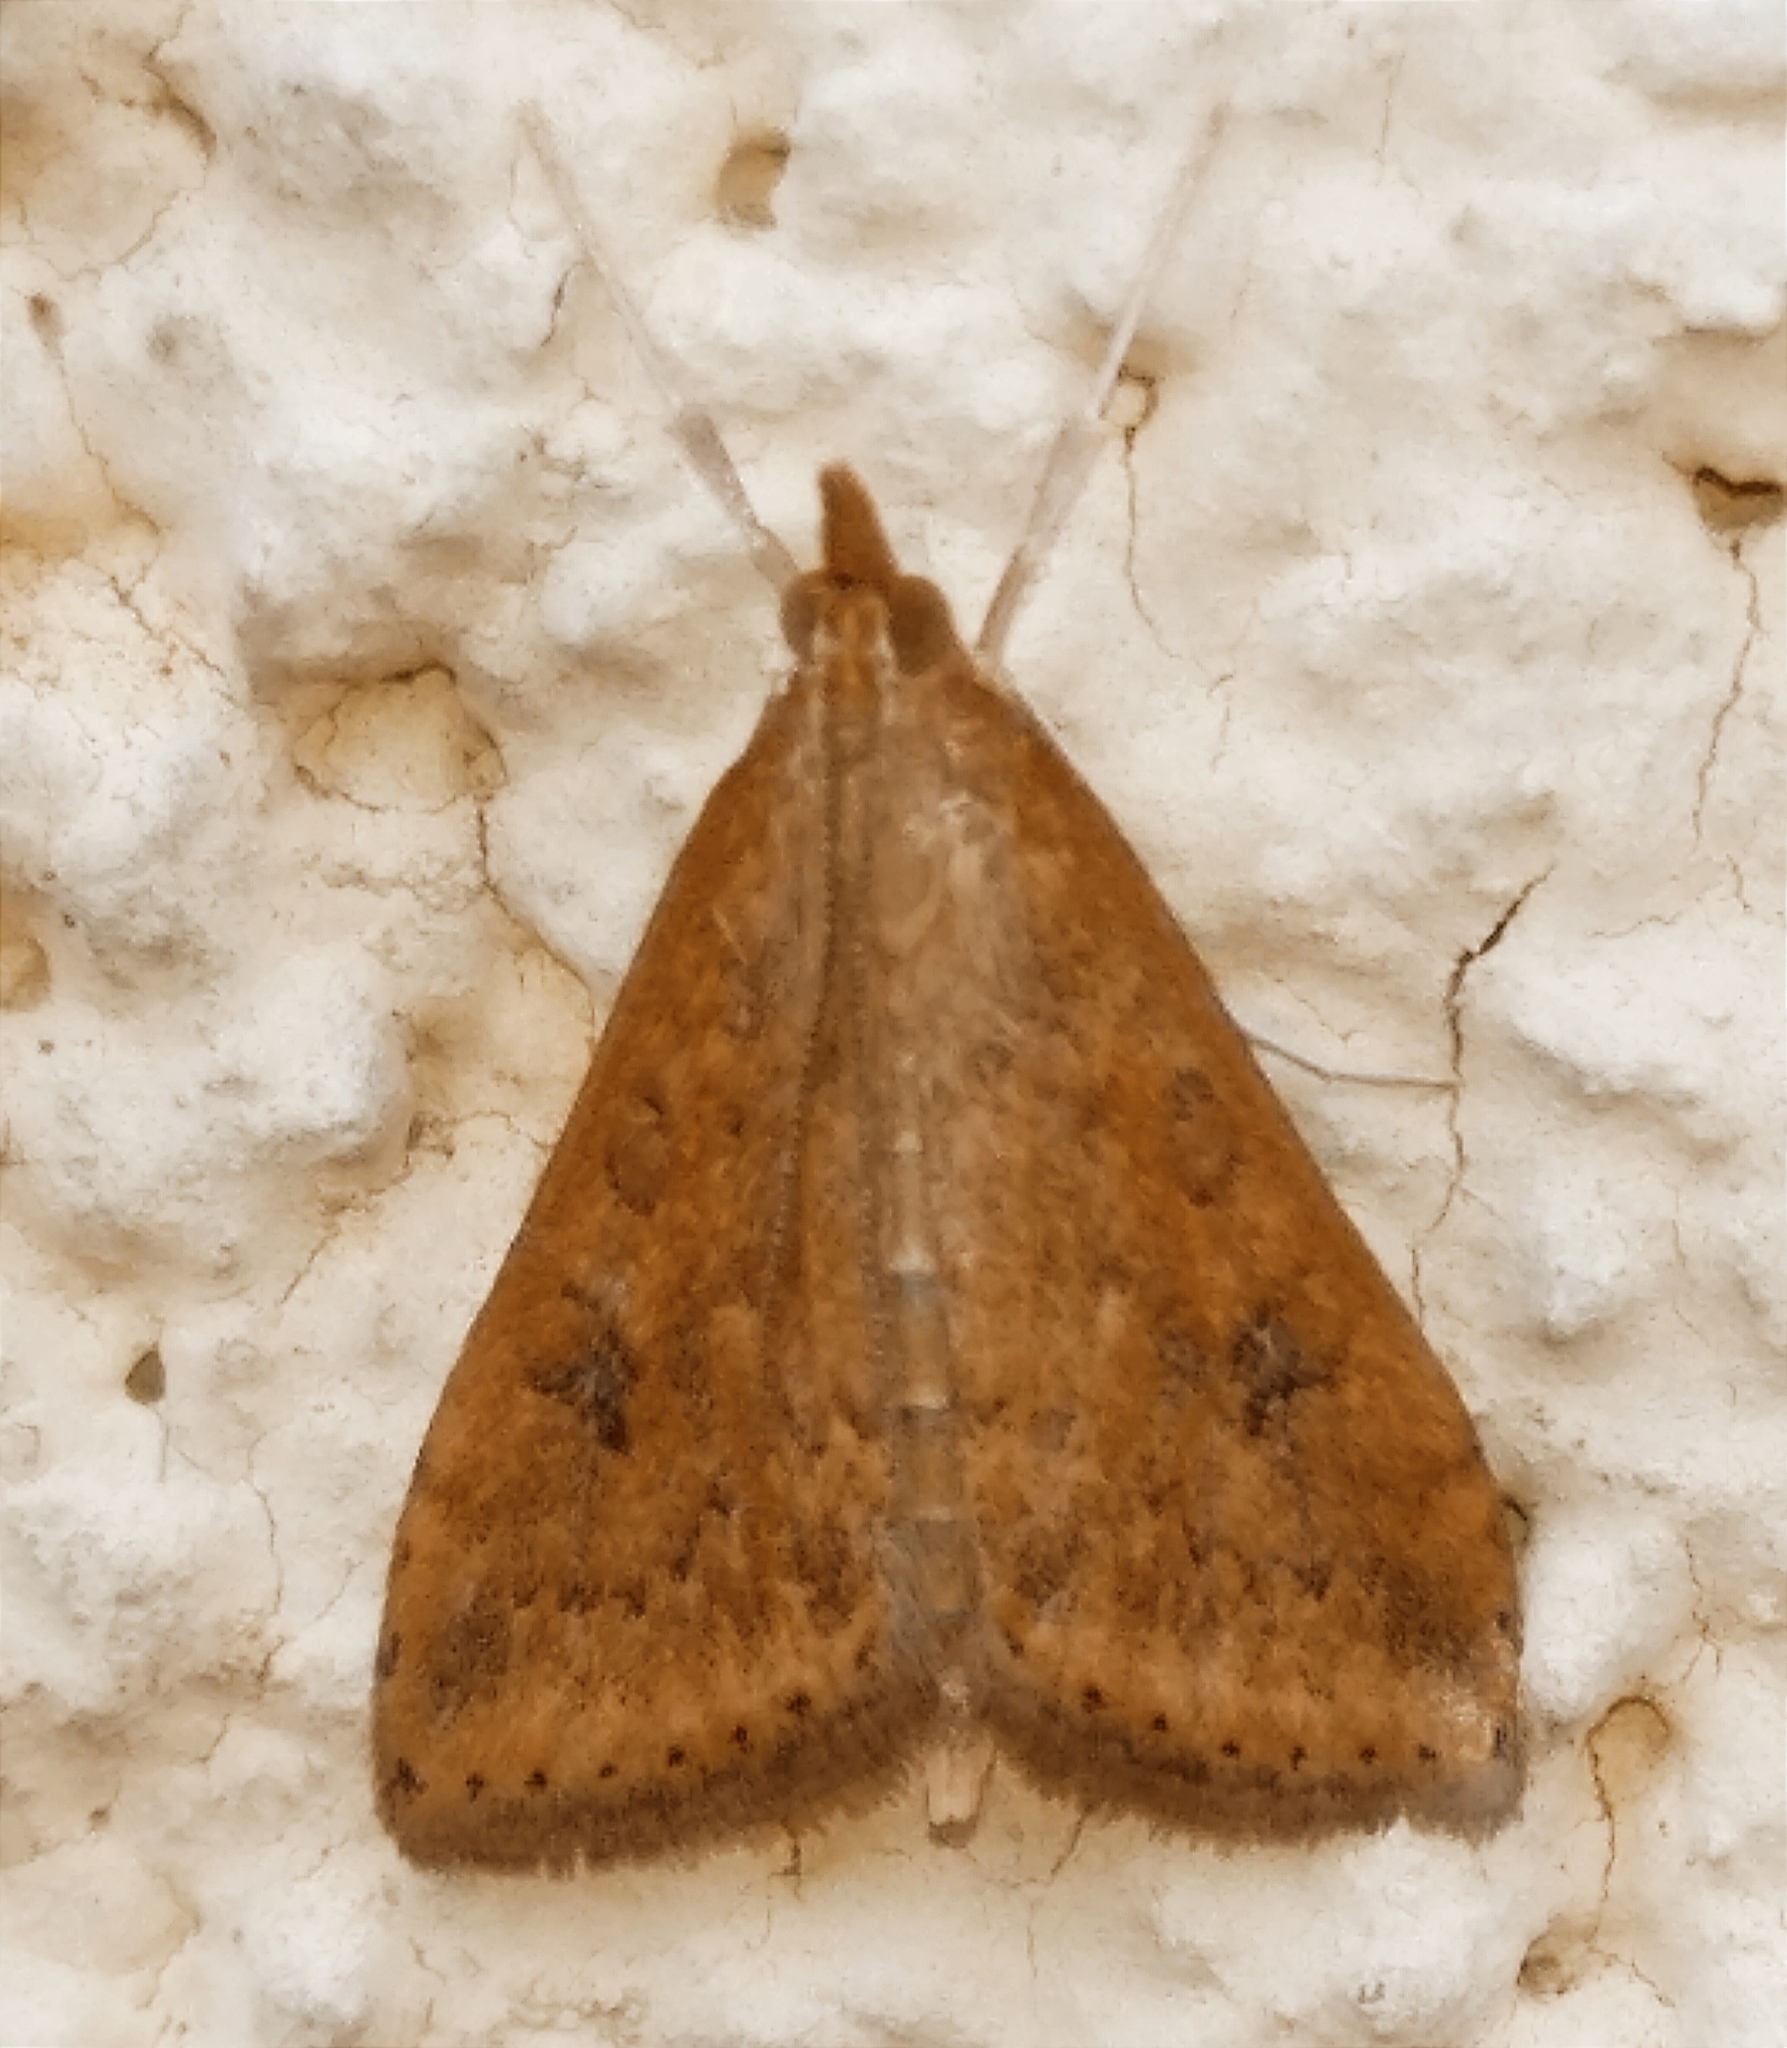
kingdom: Animalia
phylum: Arthropoda
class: Insecta
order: Lepidoptera
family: Crambidae
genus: Udea
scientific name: Udea ferrugalis
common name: Rusty dot
